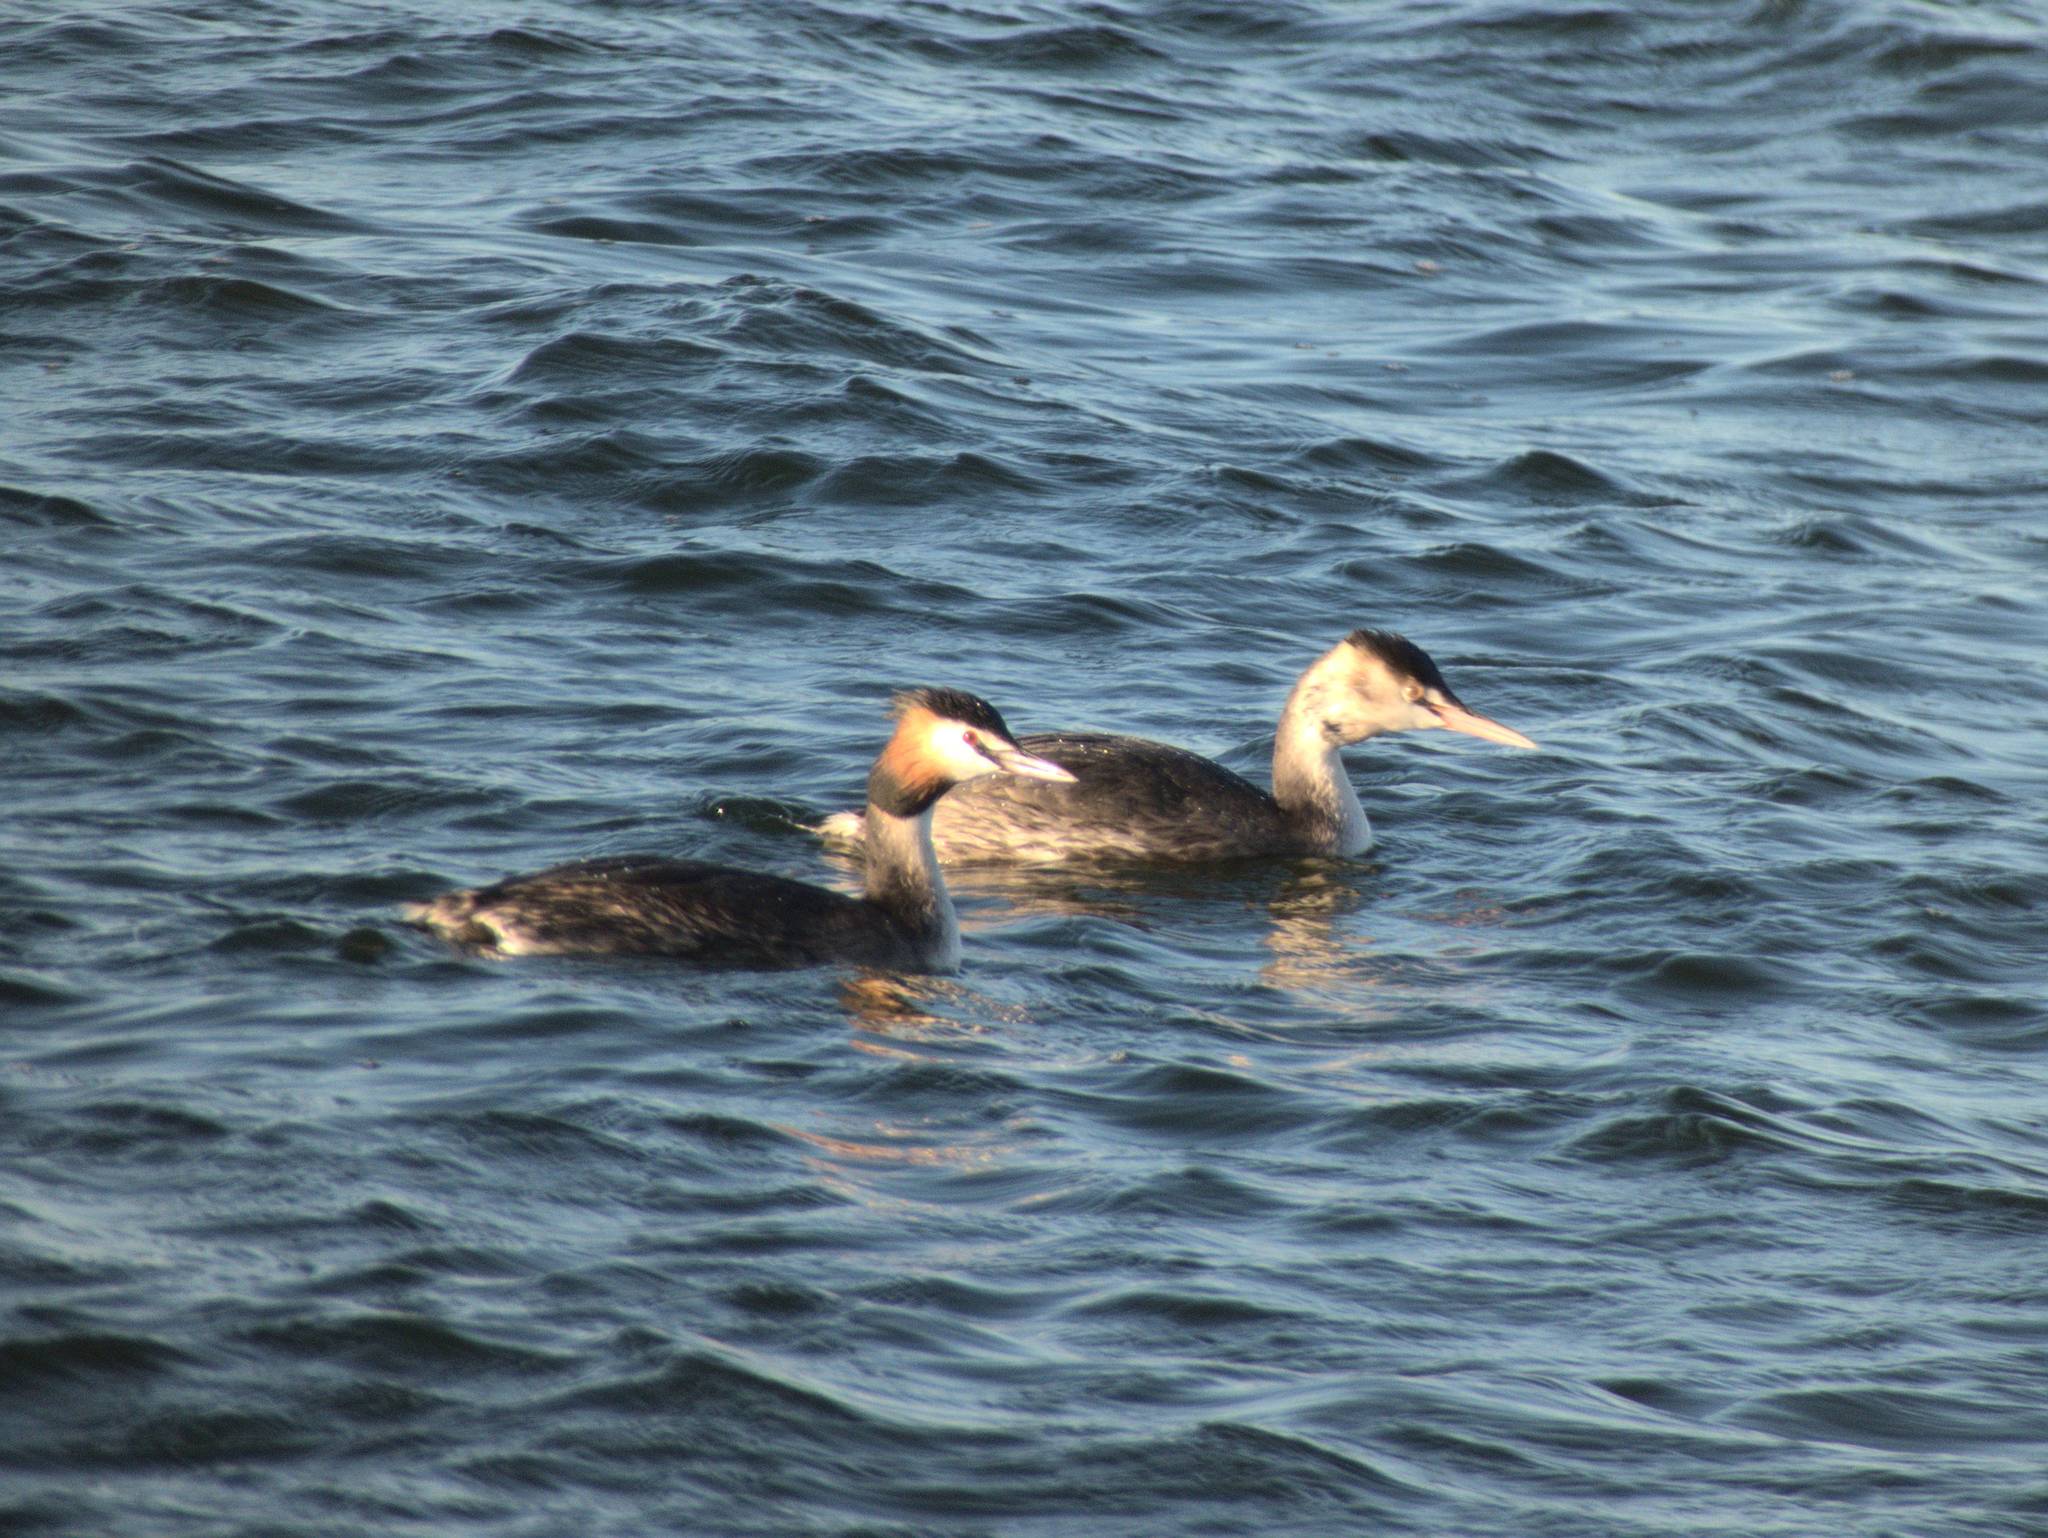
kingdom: Animalia
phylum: Chordata
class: Aves
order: Podicipediformes
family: Podicipedidae
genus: Podiceps
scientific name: Podiceps cristatus
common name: Great crested grebe
